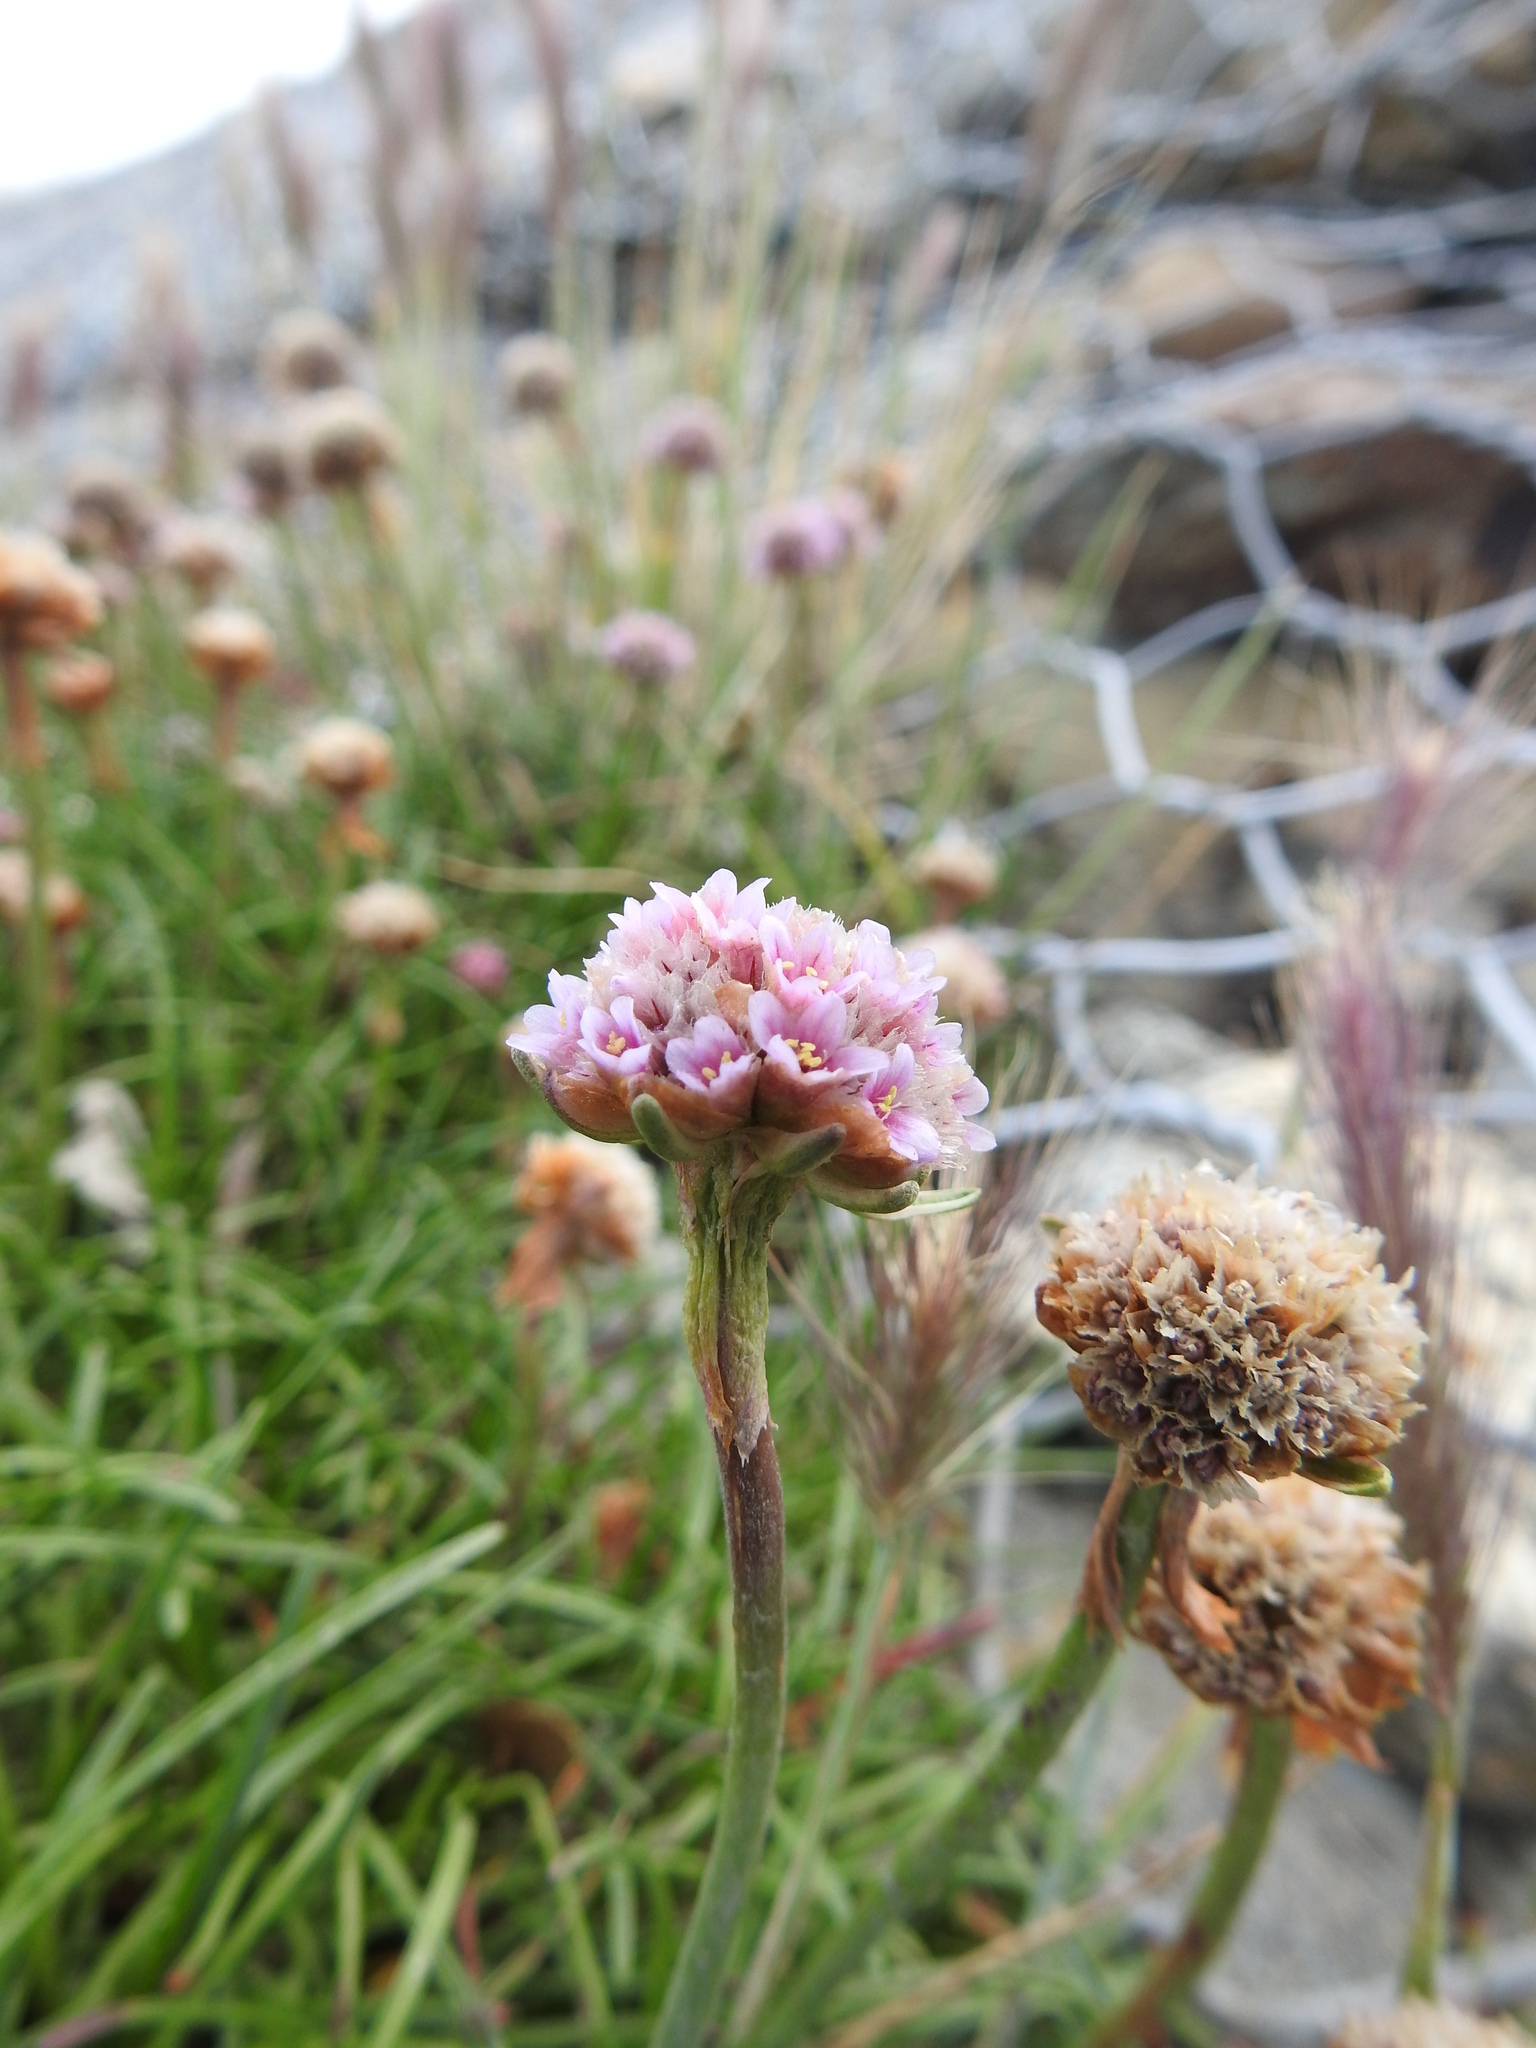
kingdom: Plantae
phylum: Tracheophyta
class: Magnoliopsida
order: Caryophyllales
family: Plumbaginaceae
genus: Armeria
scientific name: Armeria curvifolia
